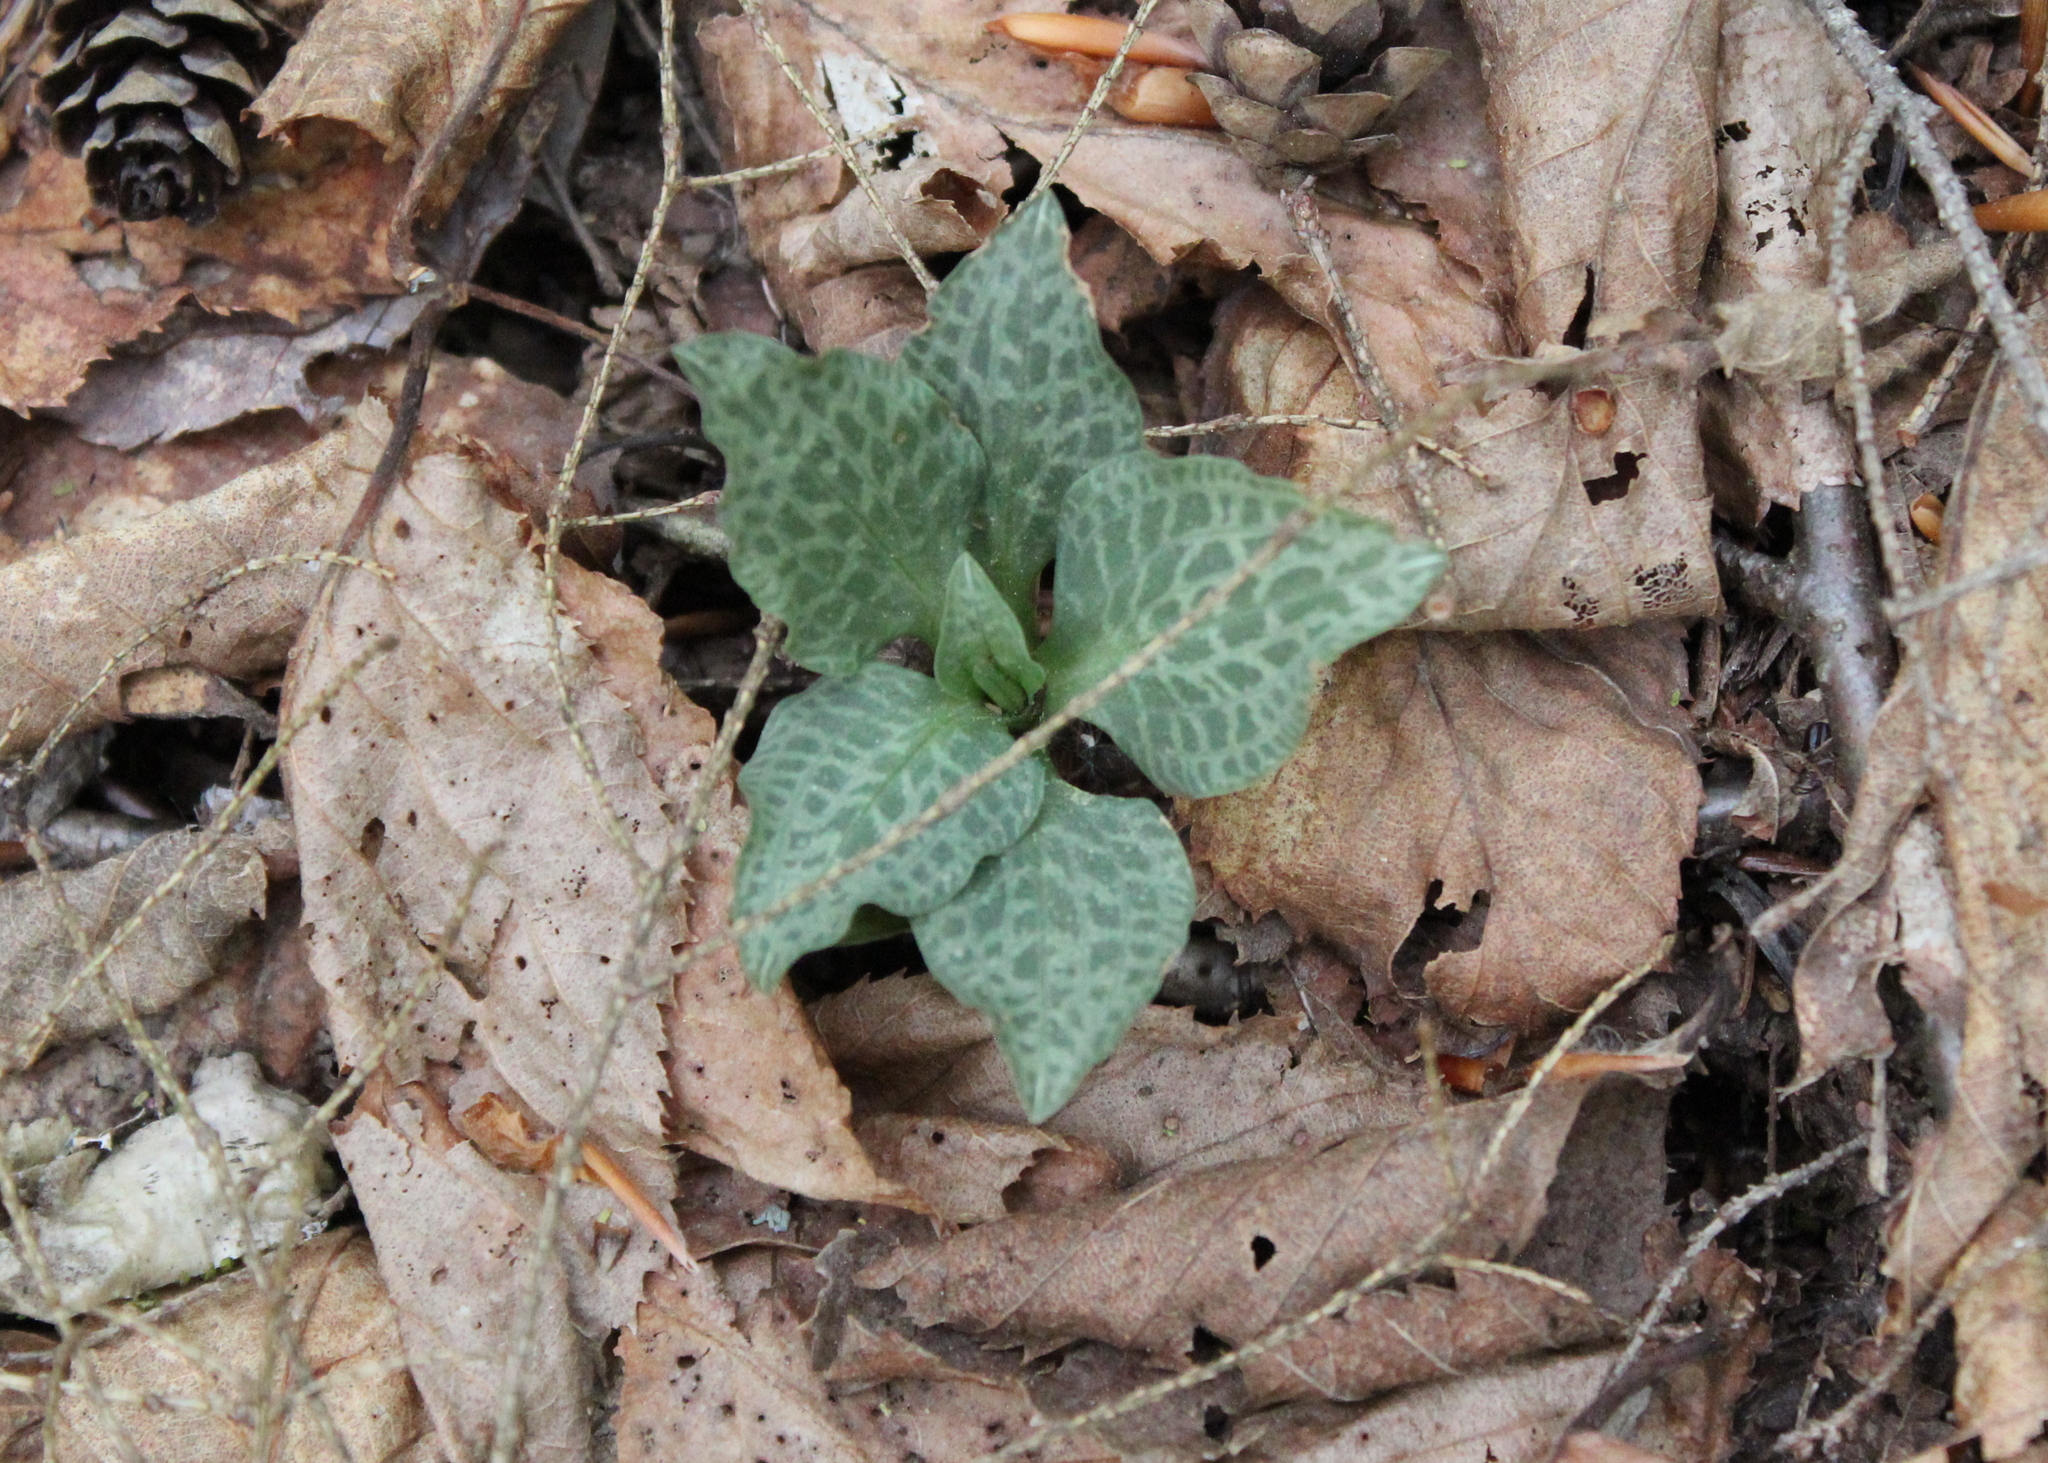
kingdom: Plantae
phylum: Tracheophyta
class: Liliopsida
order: Asparagales
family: Orchidaceae
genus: Goodyera
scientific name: Goodyera tesselata
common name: Checkered rattlesnake-plantain
